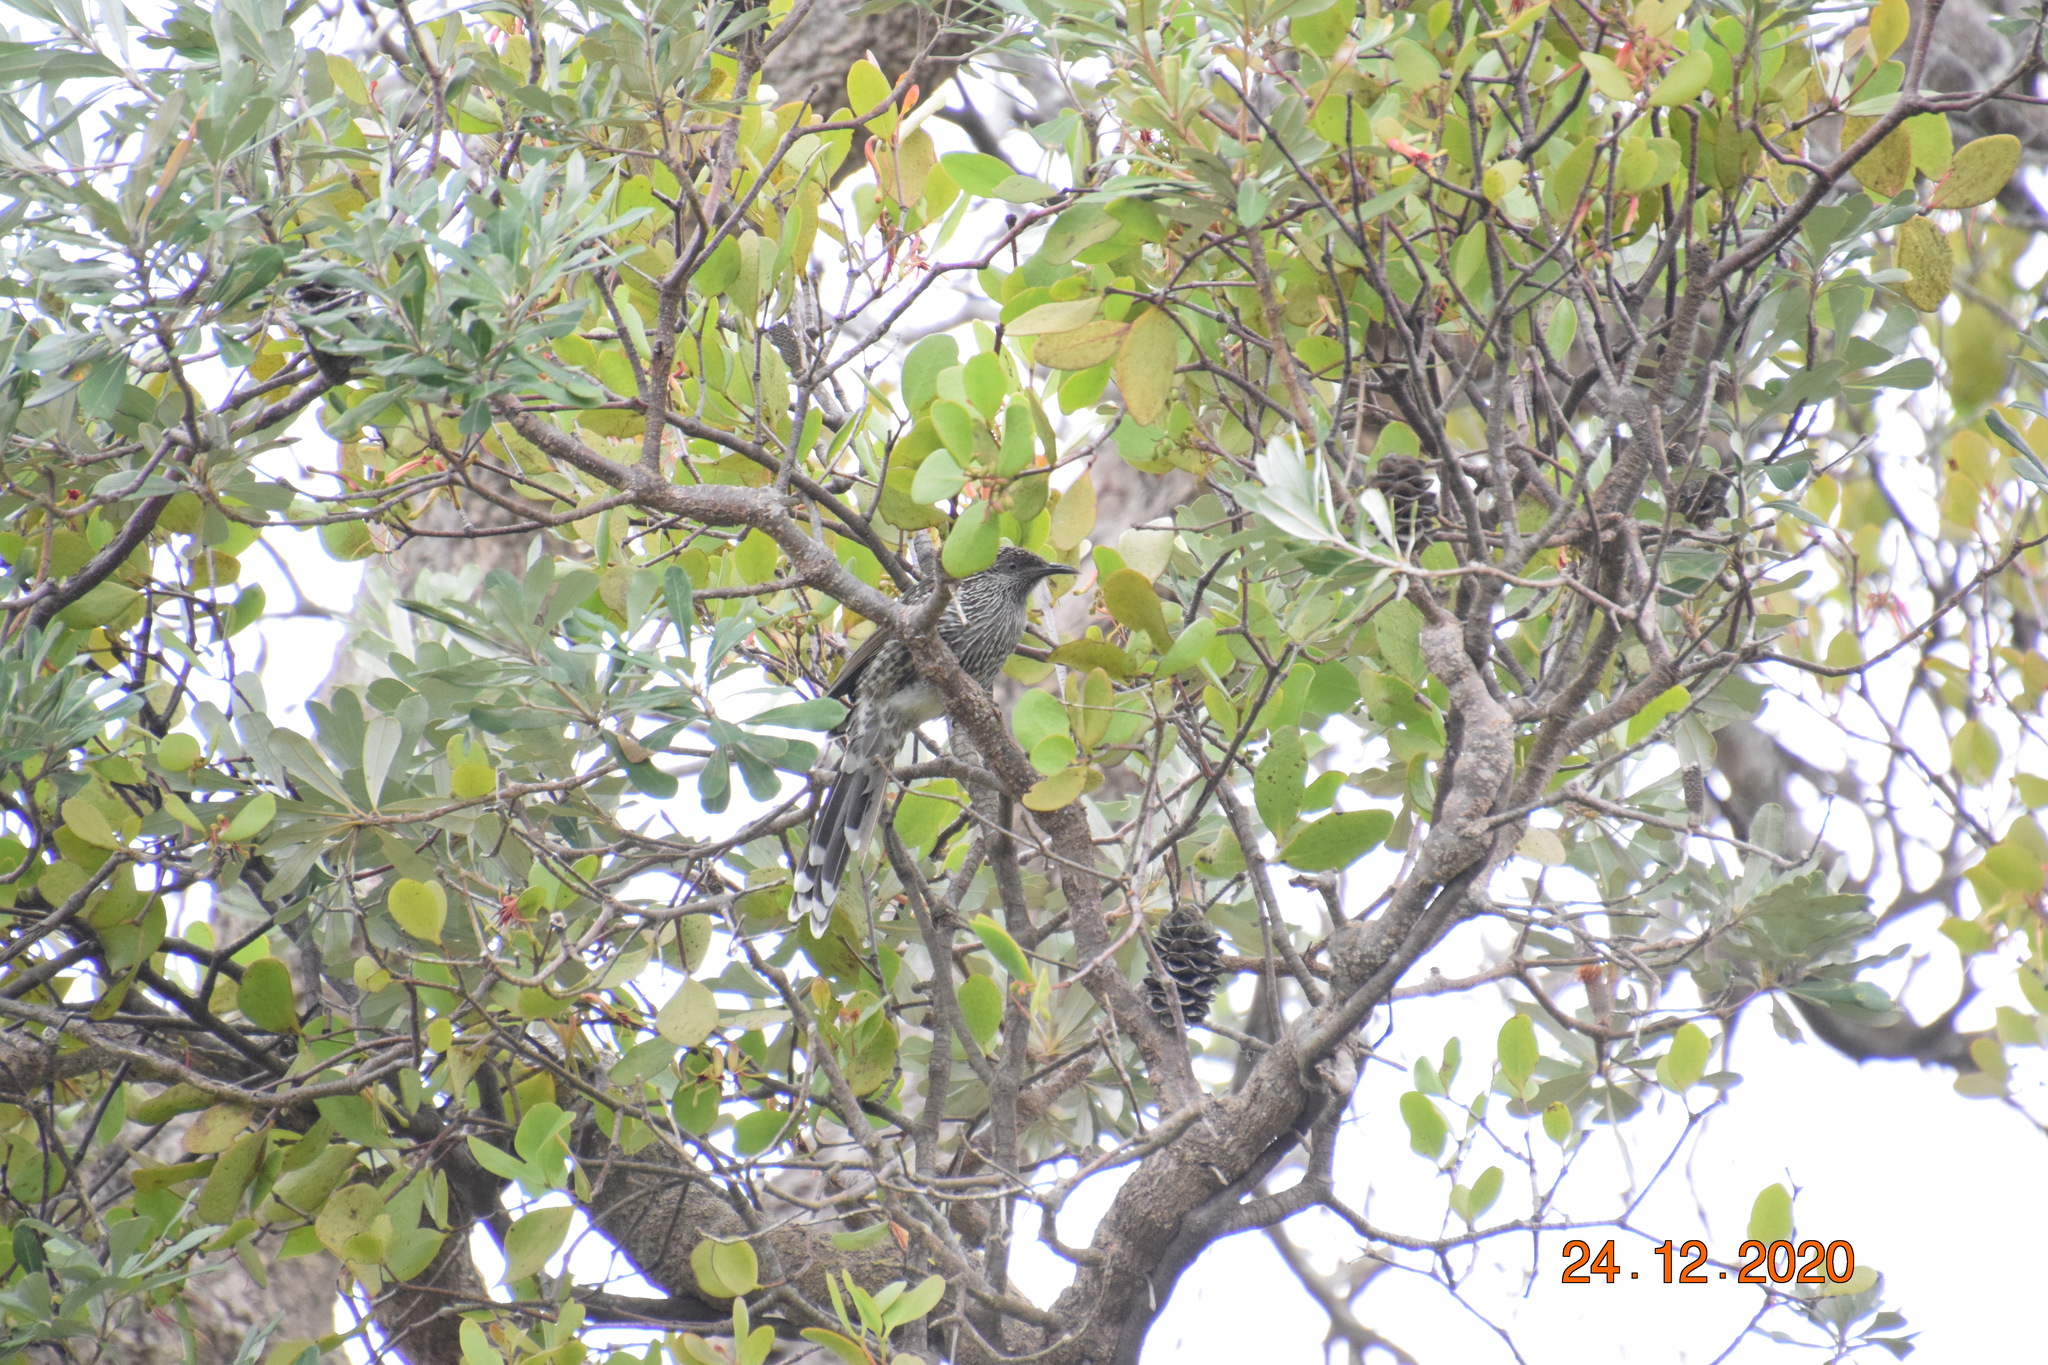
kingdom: Animalia
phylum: Chordata
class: Aves
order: Passeriformes
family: Meliphagidae
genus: Anthochaera
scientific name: Anthochaera chrysoptera
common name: Little wattlebird
